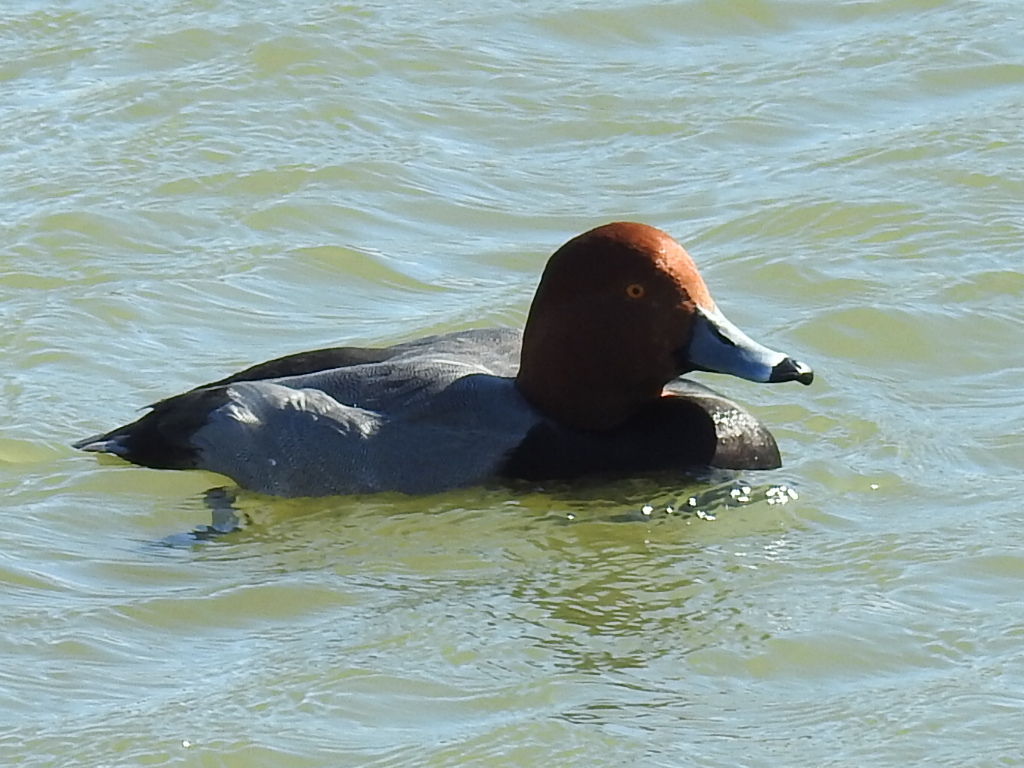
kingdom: Animalia
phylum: Chordata
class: Aves
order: Anseriformes
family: Anatidae
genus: Aythya
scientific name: Aythya americana
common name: Redhead
